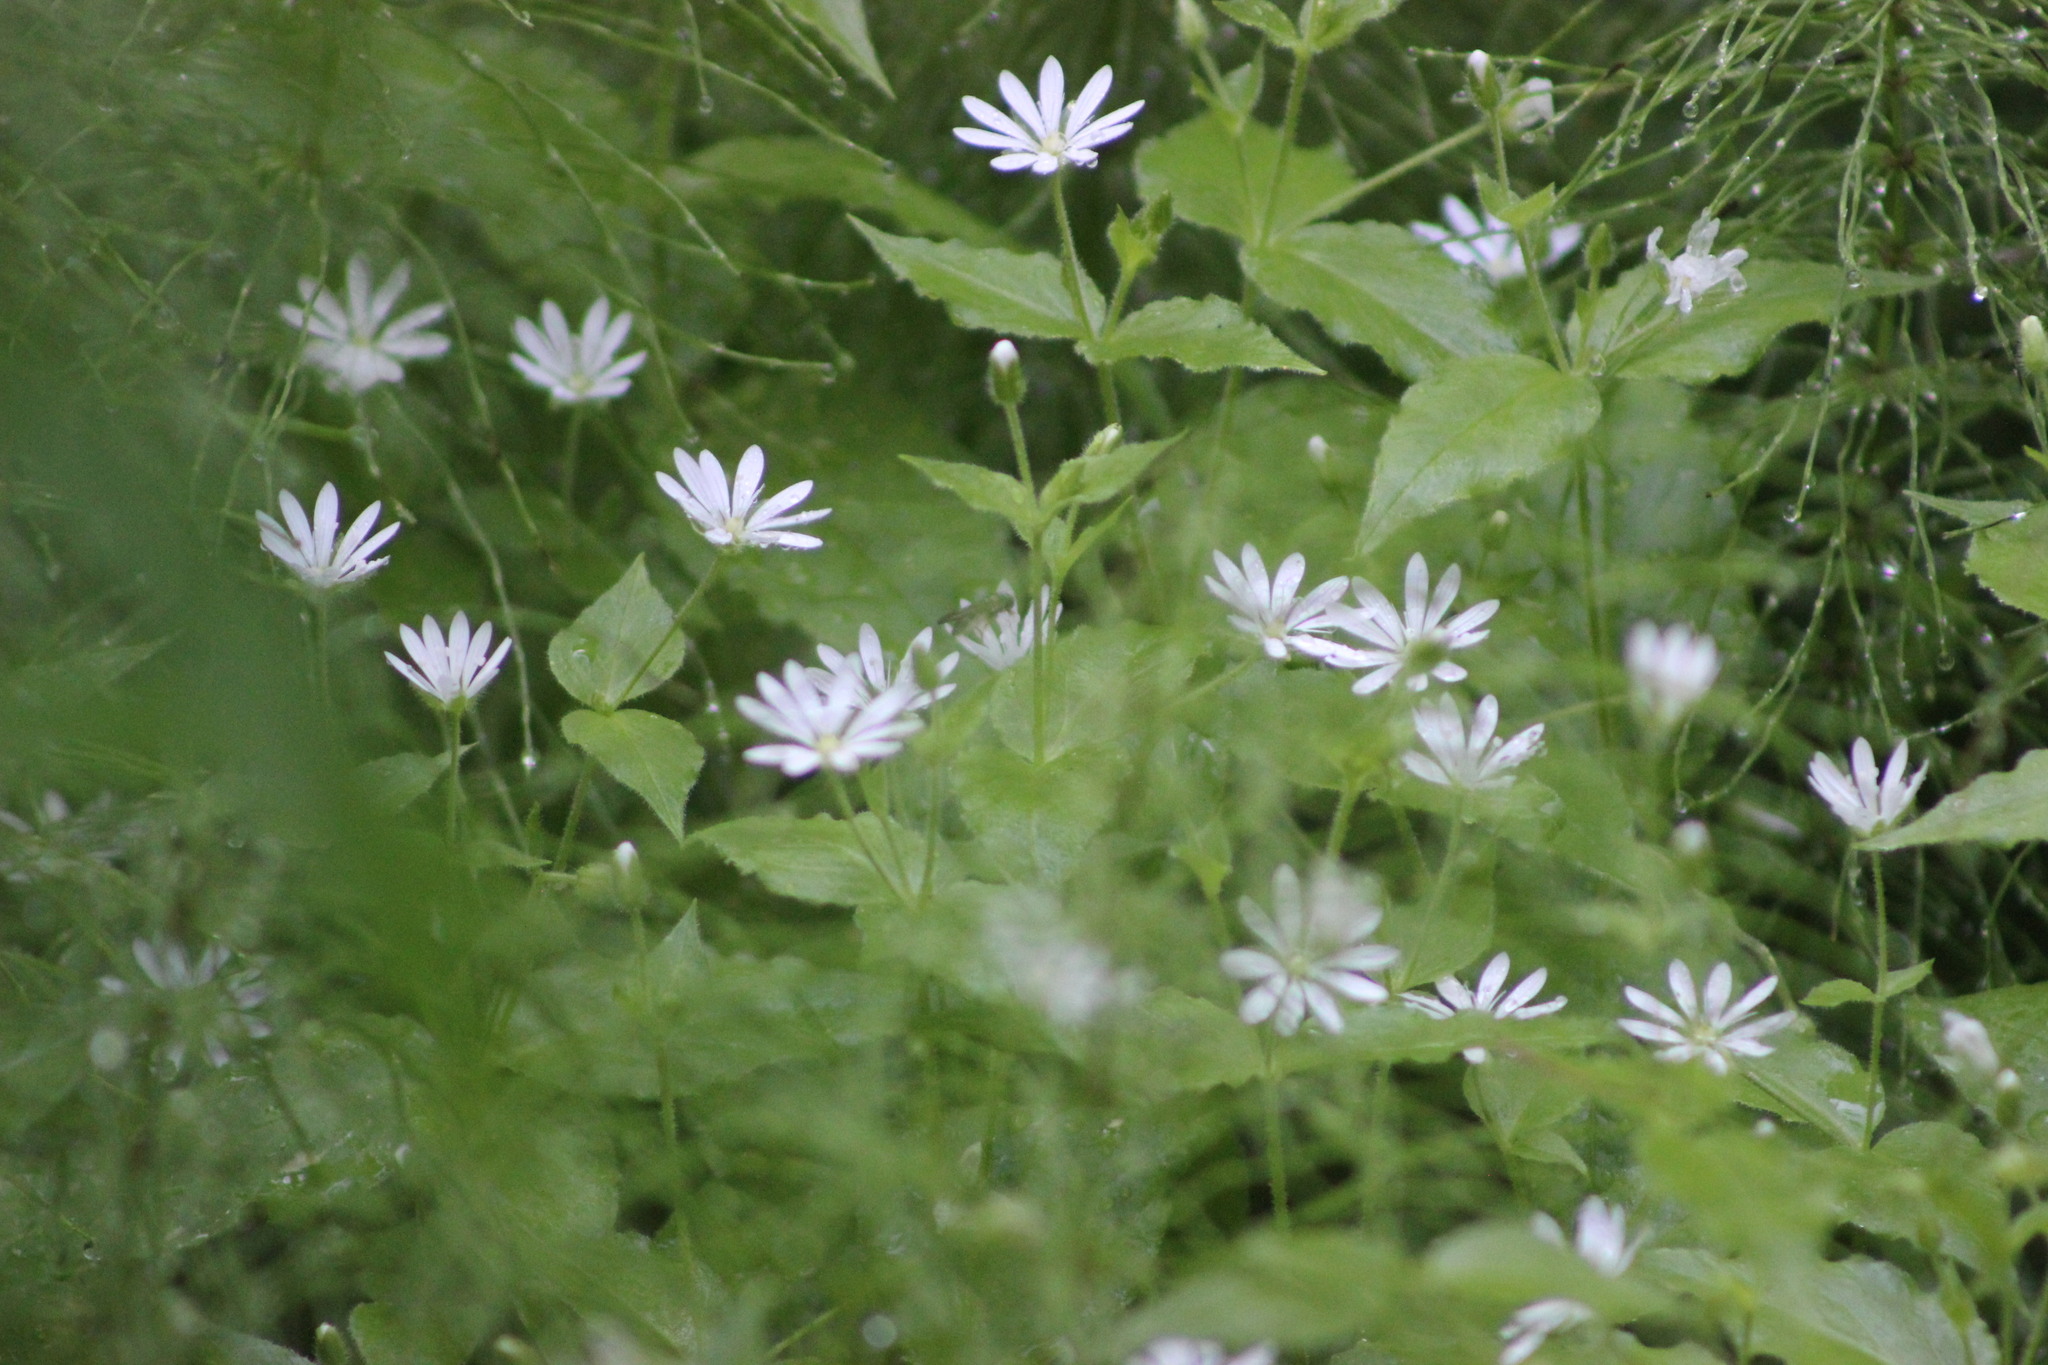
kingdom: Plantae
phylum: Tracheophyta
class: Magnoliopsida
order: Caryophyllales
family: Caryophyllaceae
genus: Stellaria
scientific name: Stellaria bungeana
